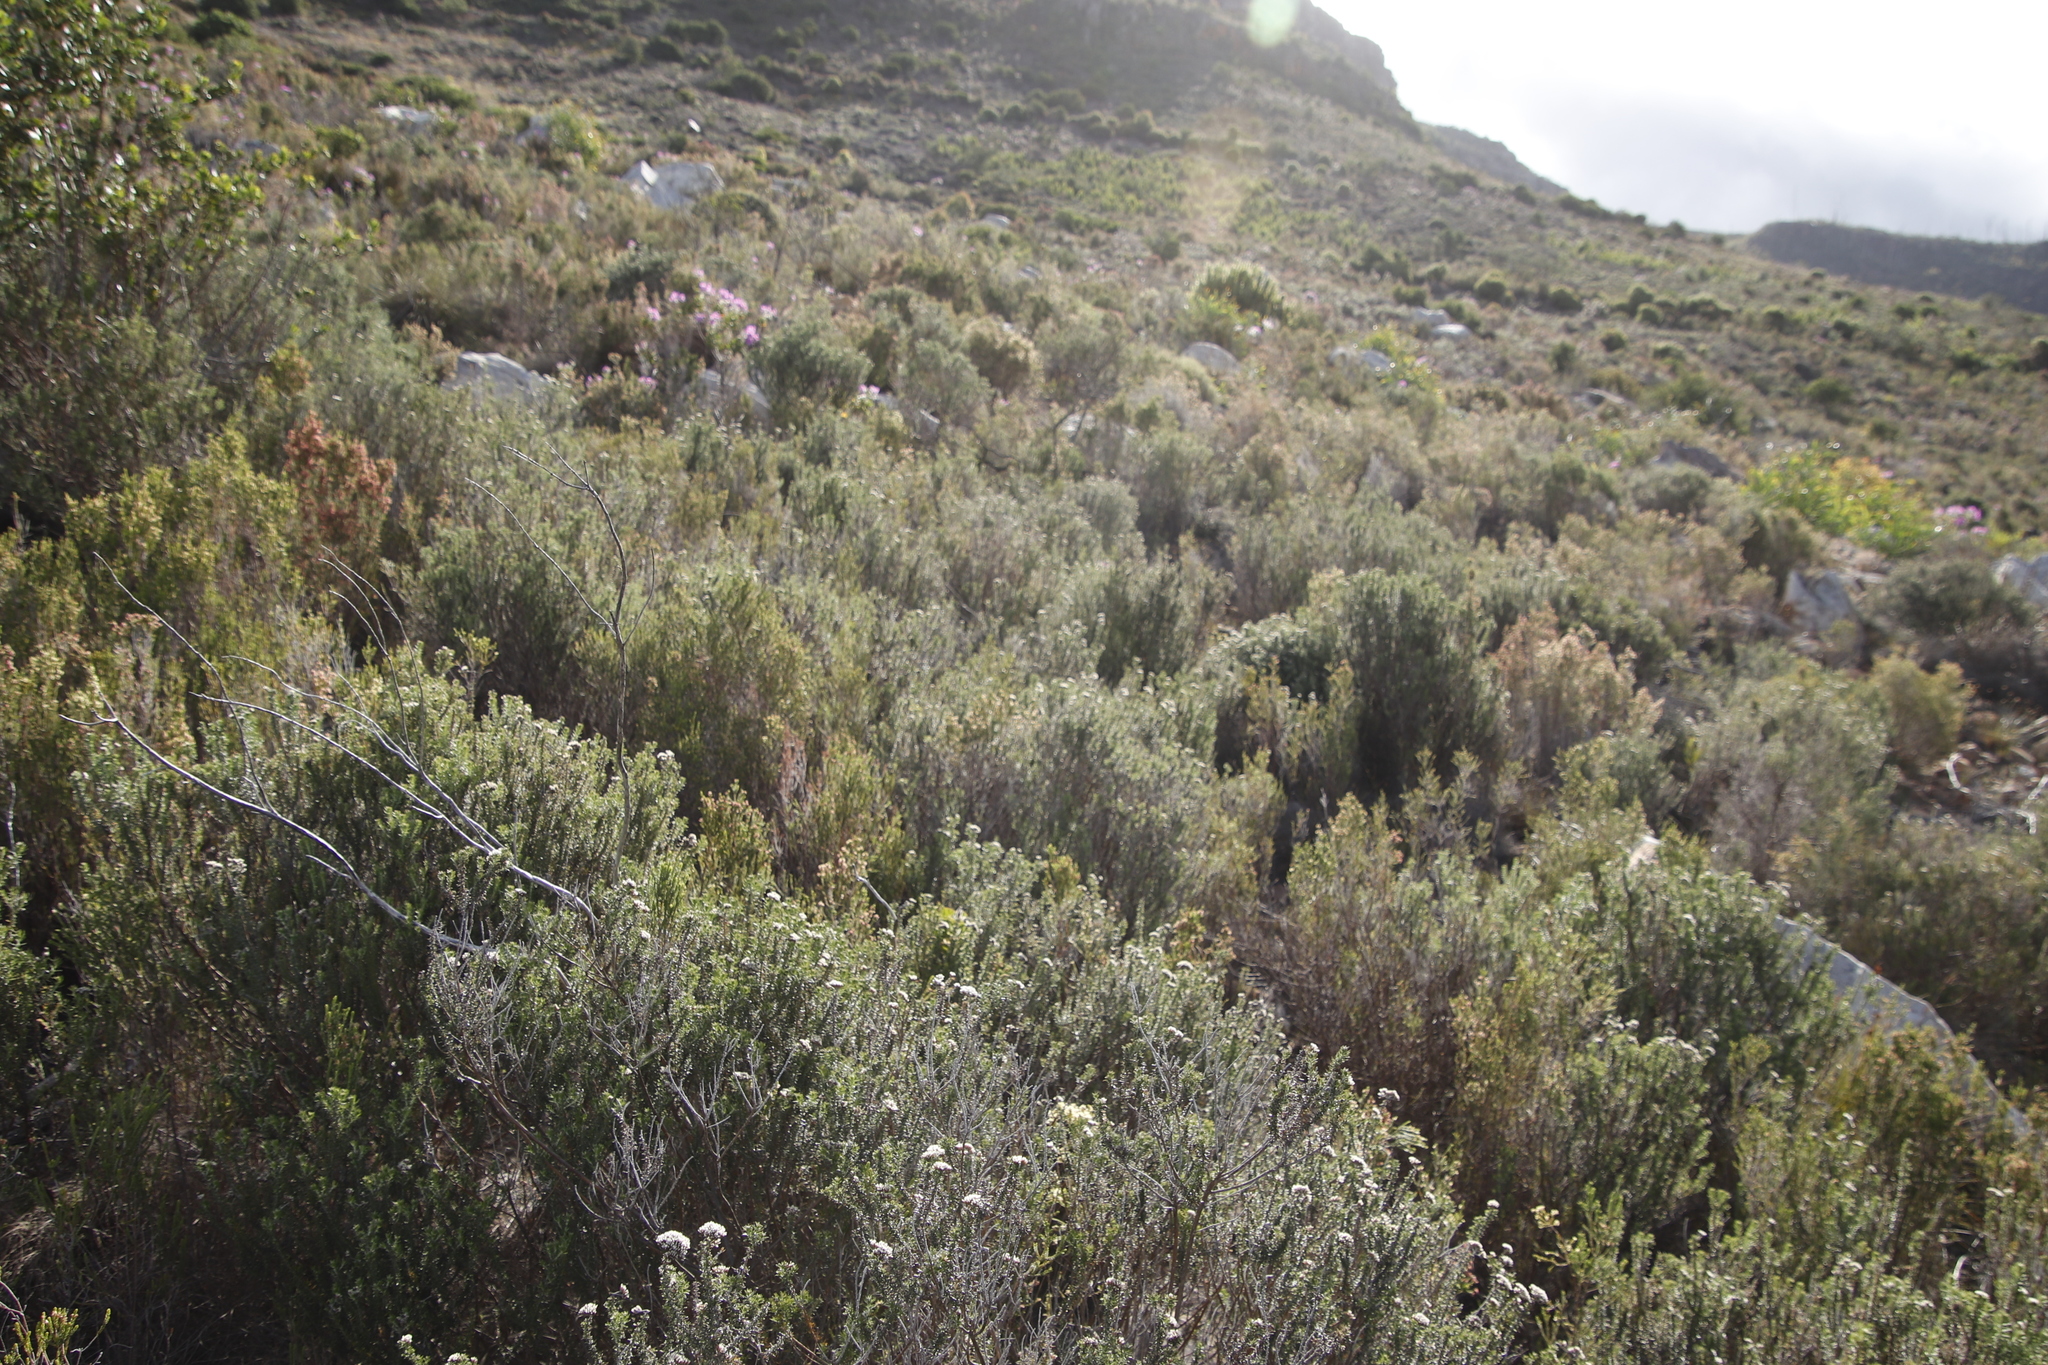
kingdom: Plantae
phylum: Tracheophyta
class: Magnoliopsida
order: Asterales
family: Asteraceae
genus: Metalasia
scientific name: Metalasia densa
